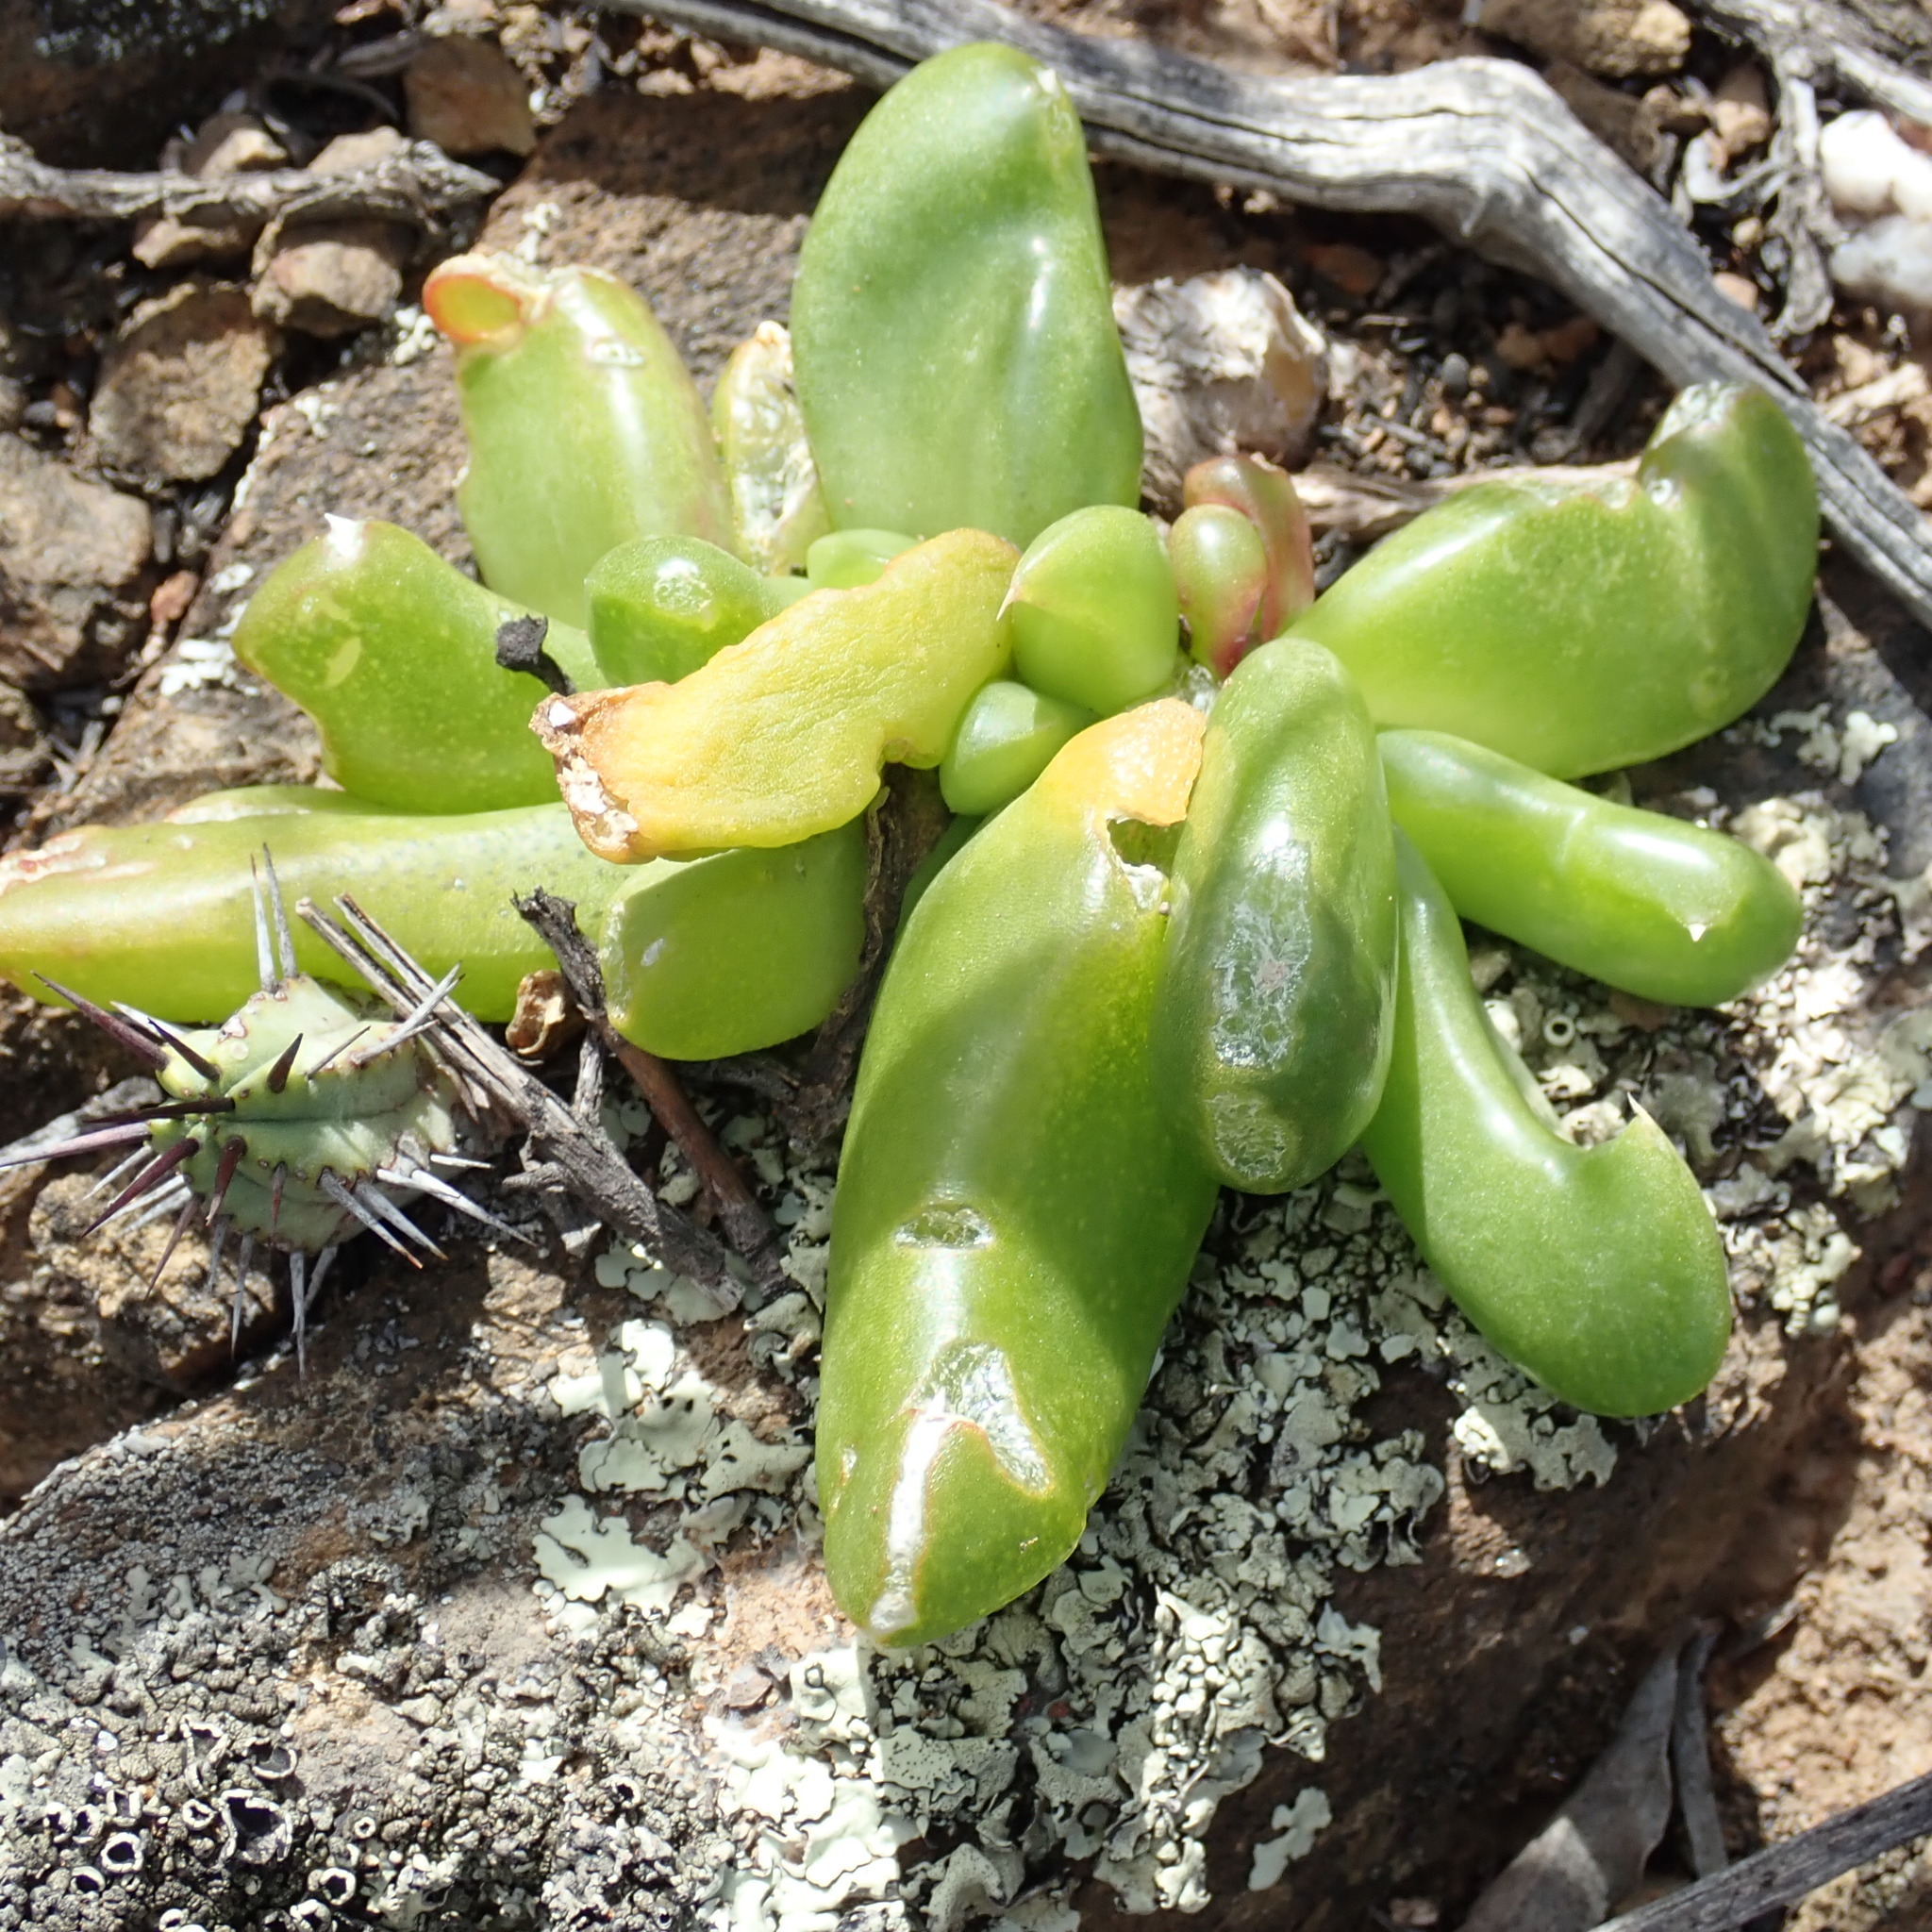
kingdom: Plantae
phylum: Tracheophyta
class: Magnoliopsida
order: Caryophyllales
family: Aizoaceae
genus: Glottiphyllum
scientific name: Glottiphyllum depressum
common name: Fig-marigold
